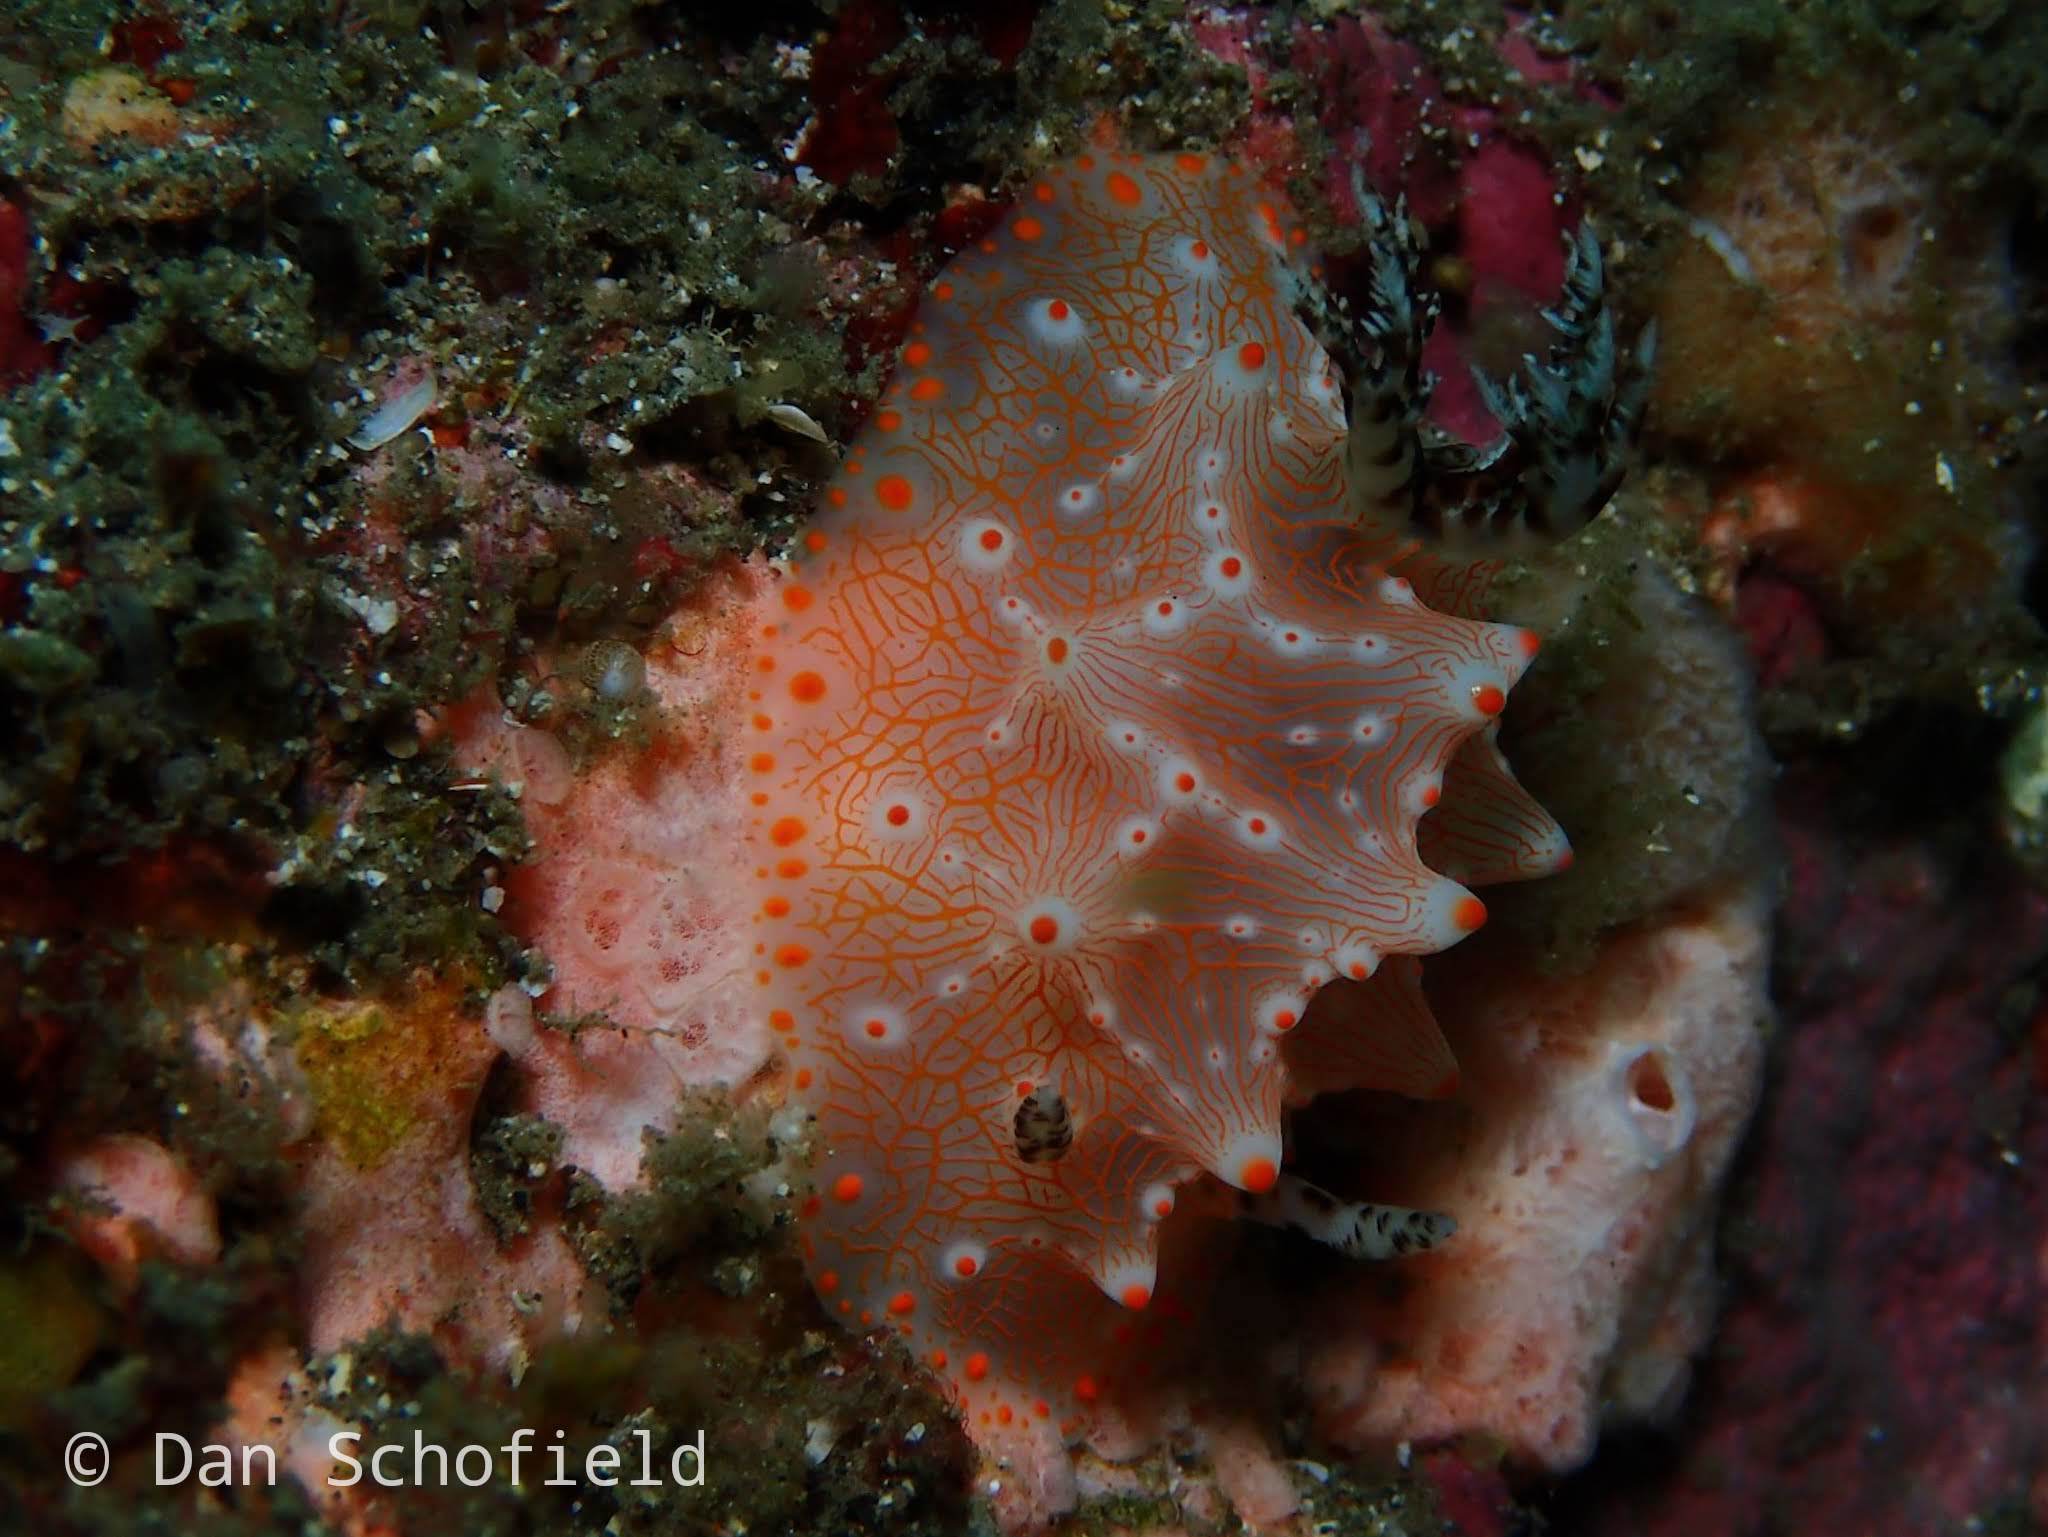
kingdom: Animalia
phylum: Mollusca
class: Gastropoda
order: Nudibranchia
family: Discodorididae
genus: Halgerda
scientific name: Halgerda batangas
